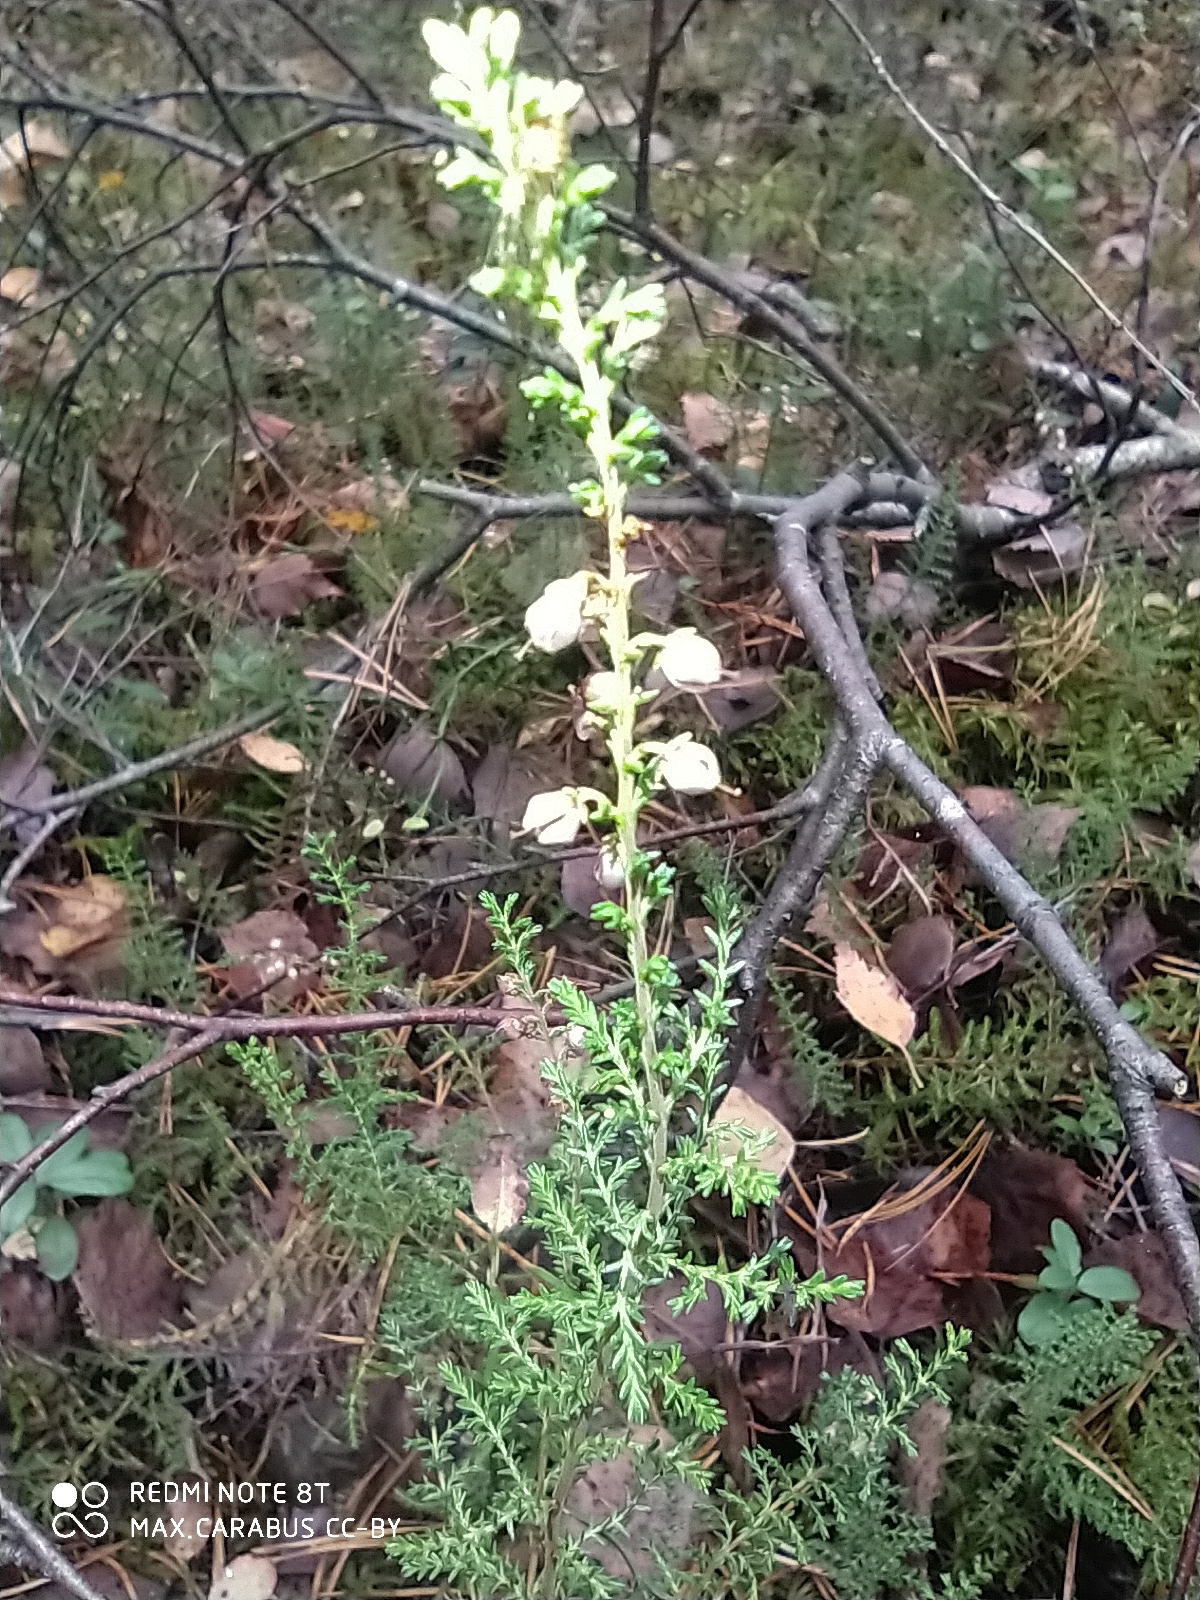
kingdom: Plantae
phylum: Tracheophyta
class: Magnoliopsida
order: Ericales
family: Ericaceae
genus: Calluna
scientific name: Calluna vulgaris
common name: Heather
